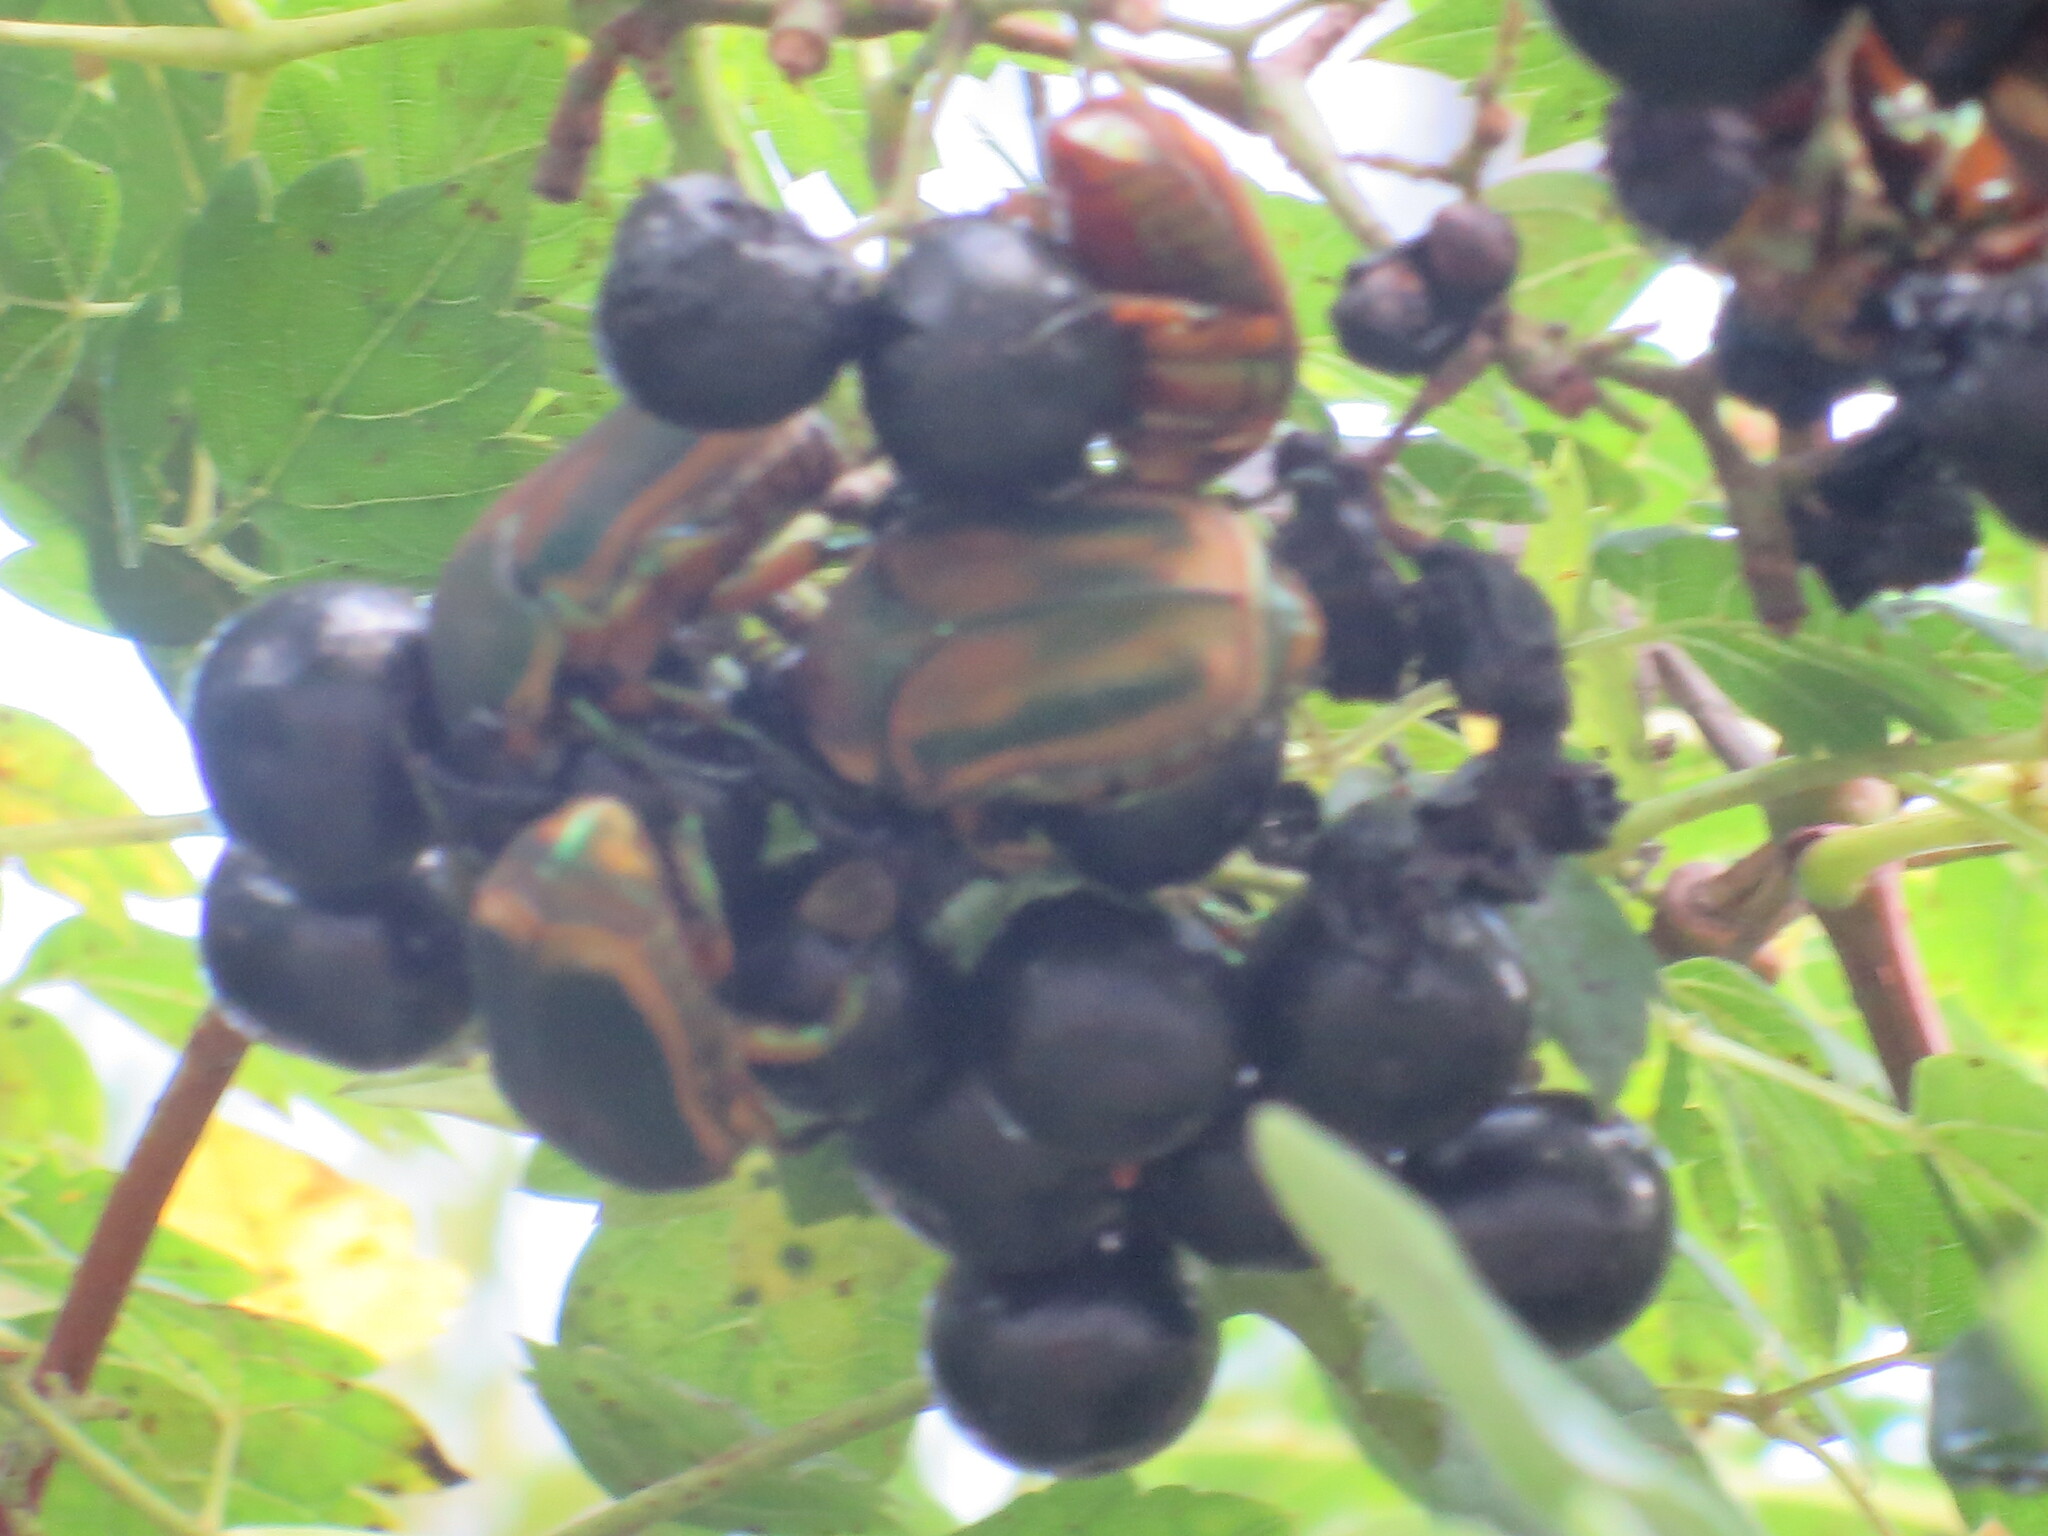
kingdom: Animalia
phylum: Arthropoda
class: Insecta
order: Coleoptera
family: Scarabaeidae
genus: Cotinis
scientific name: Cotinis nitida
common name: Common green june beetle
